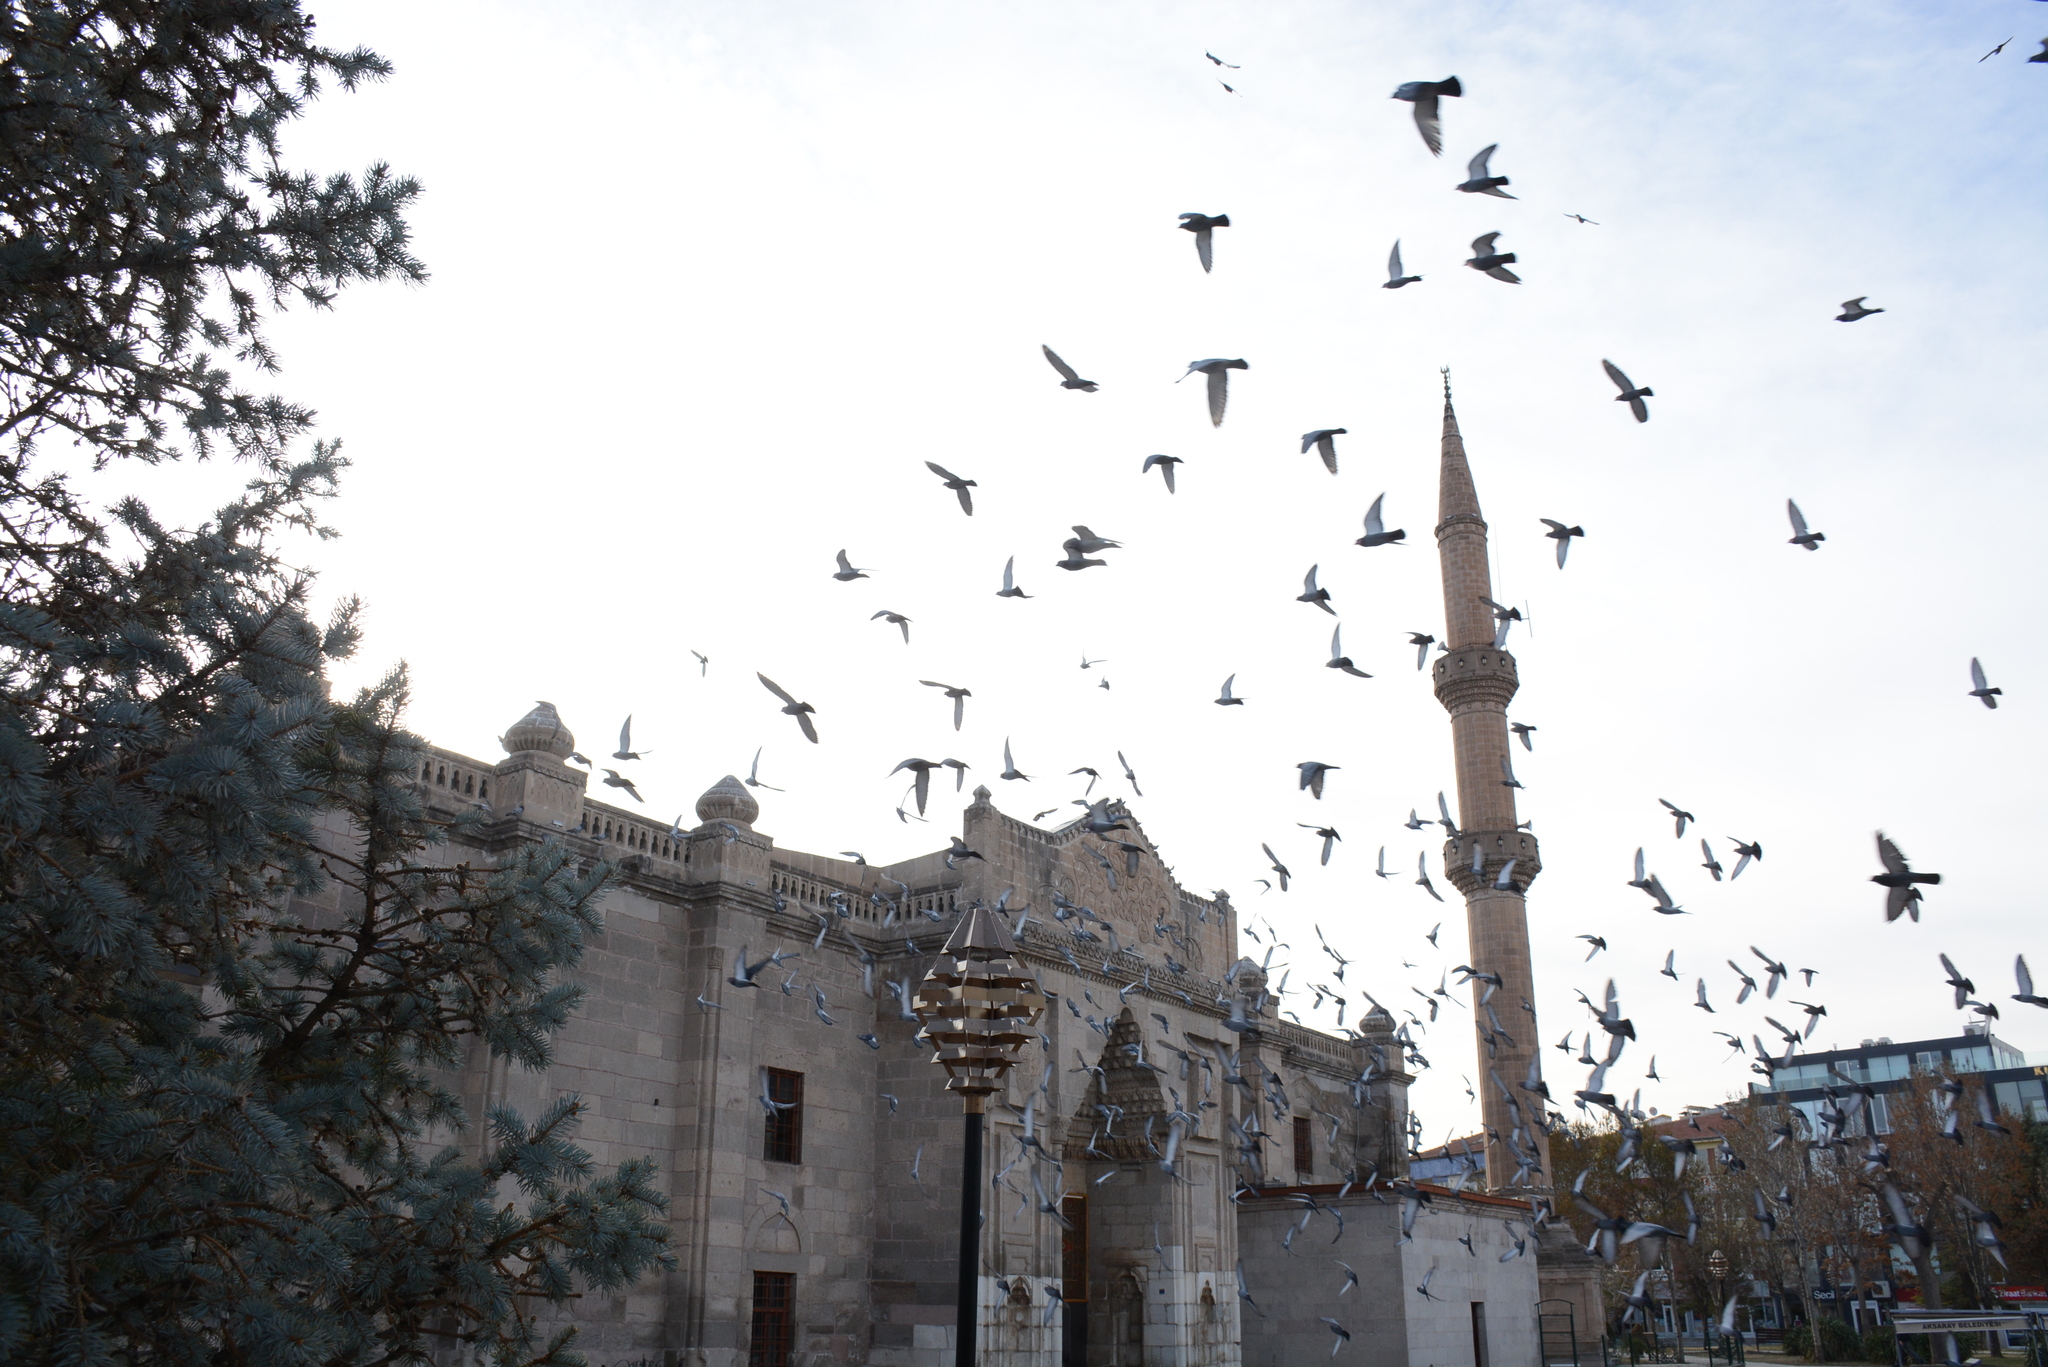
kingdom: Animalia
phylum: Chordata
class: Aves
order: Columbiformes
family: Columbidae
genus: Columba
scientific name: Columba livia
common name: Rock pigeon
